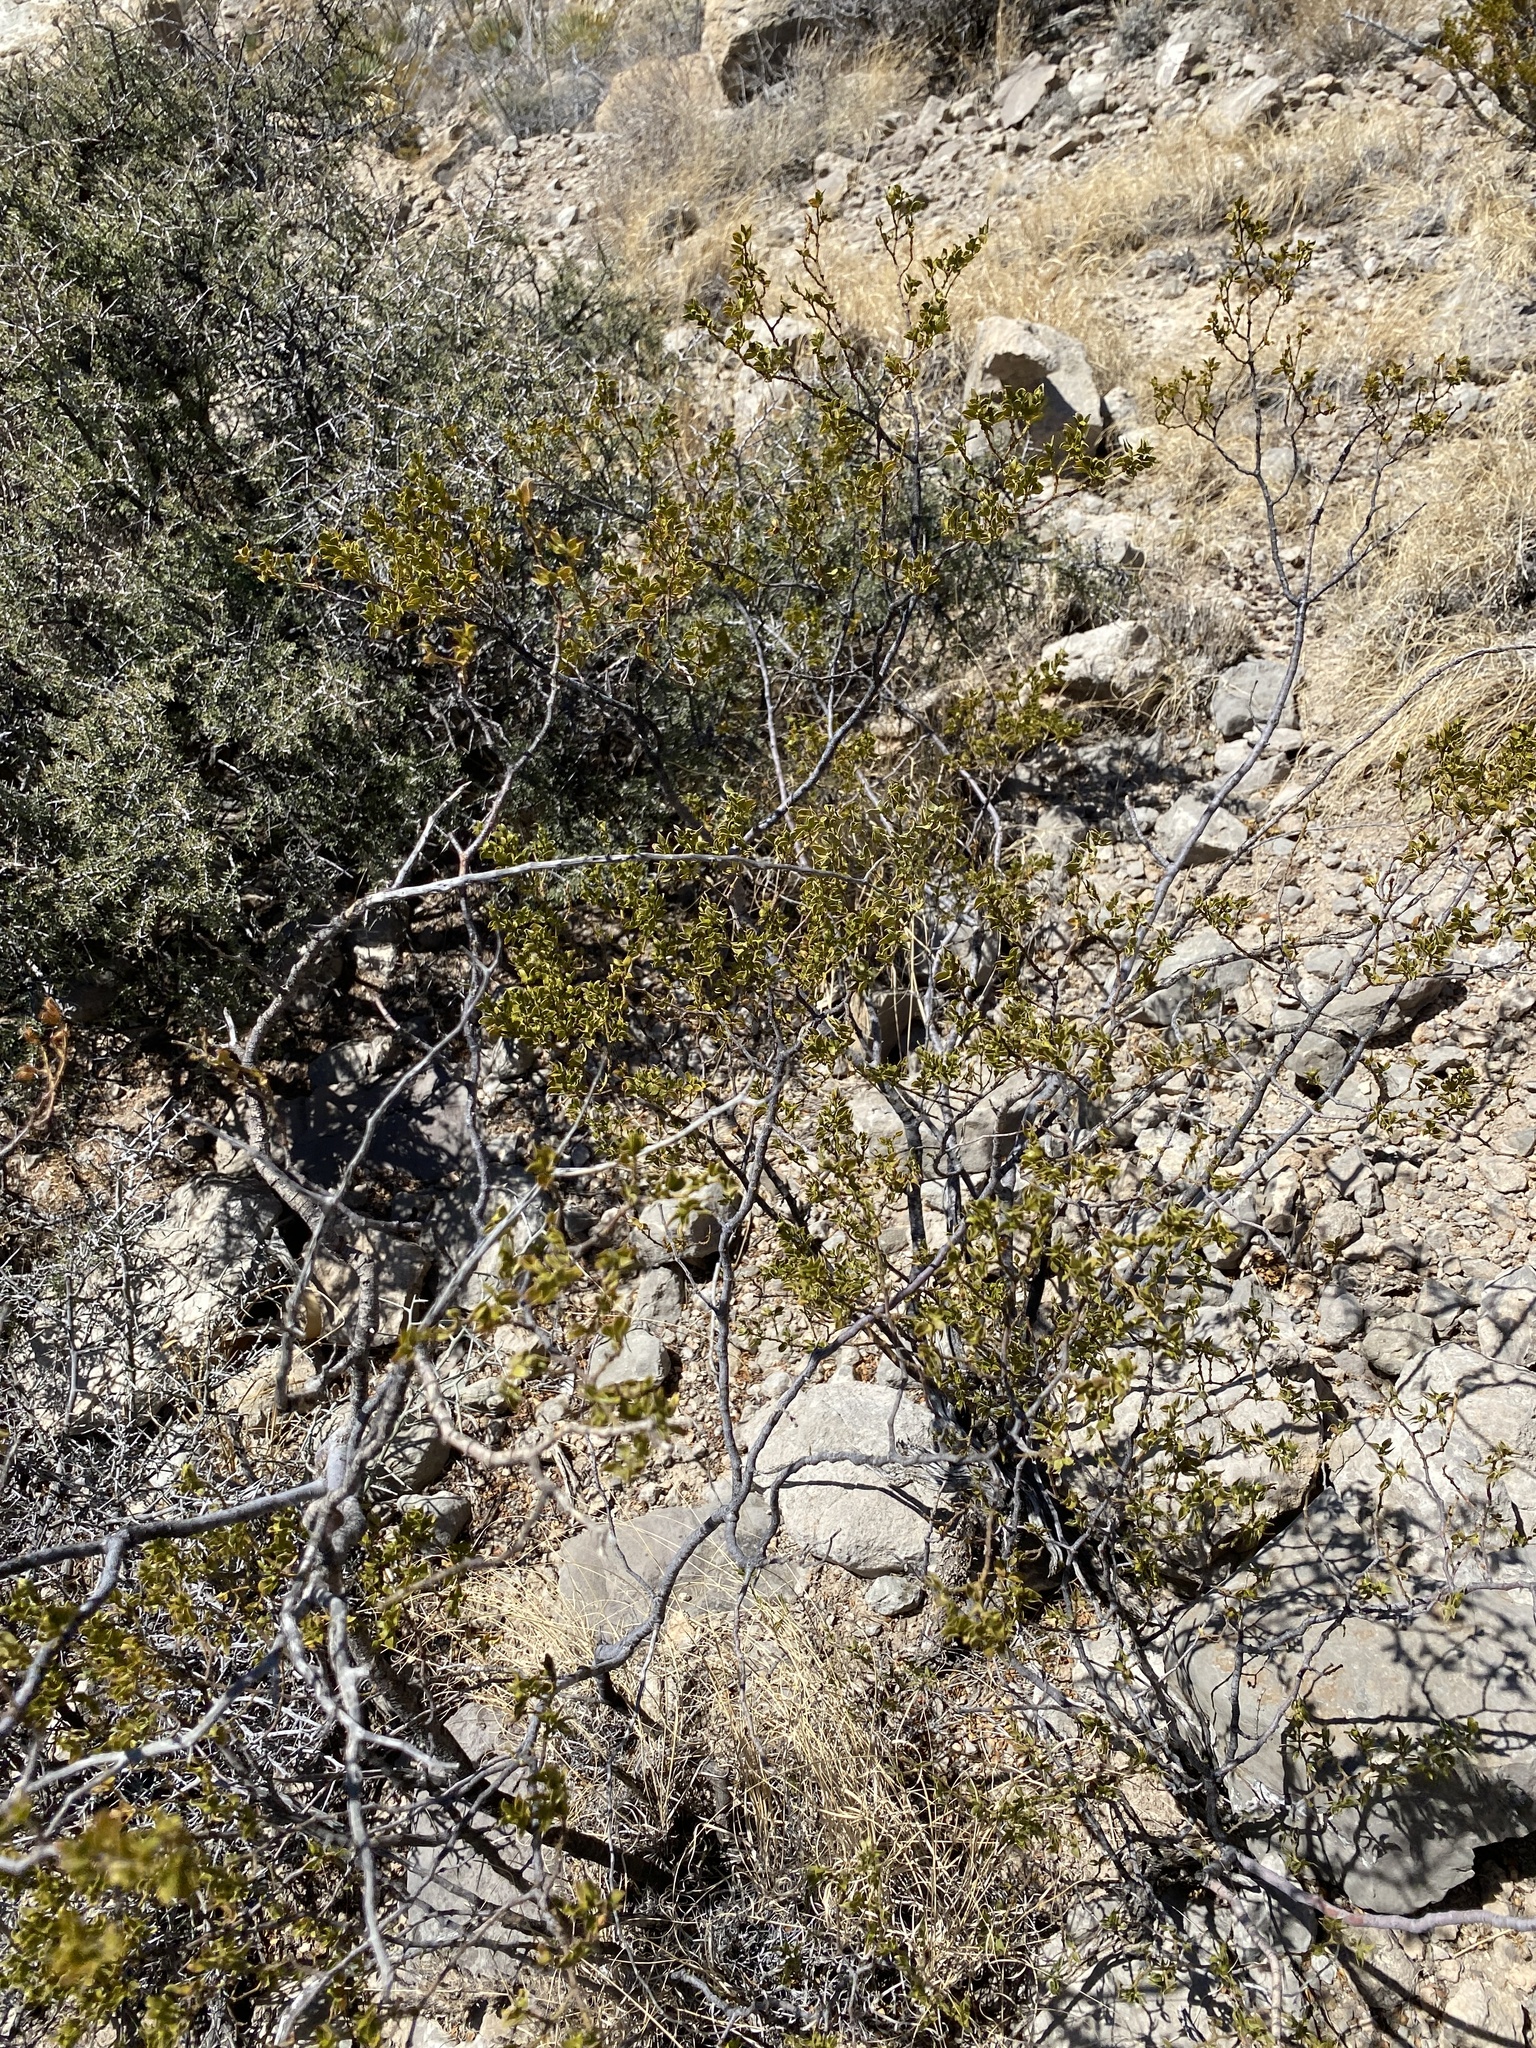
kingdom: Plantae
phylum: Tracheophyta
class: Magnoliopsida
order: Zygophyllales
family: Zygophyllaceae
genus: Larrea
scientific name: Larrea tridentata
